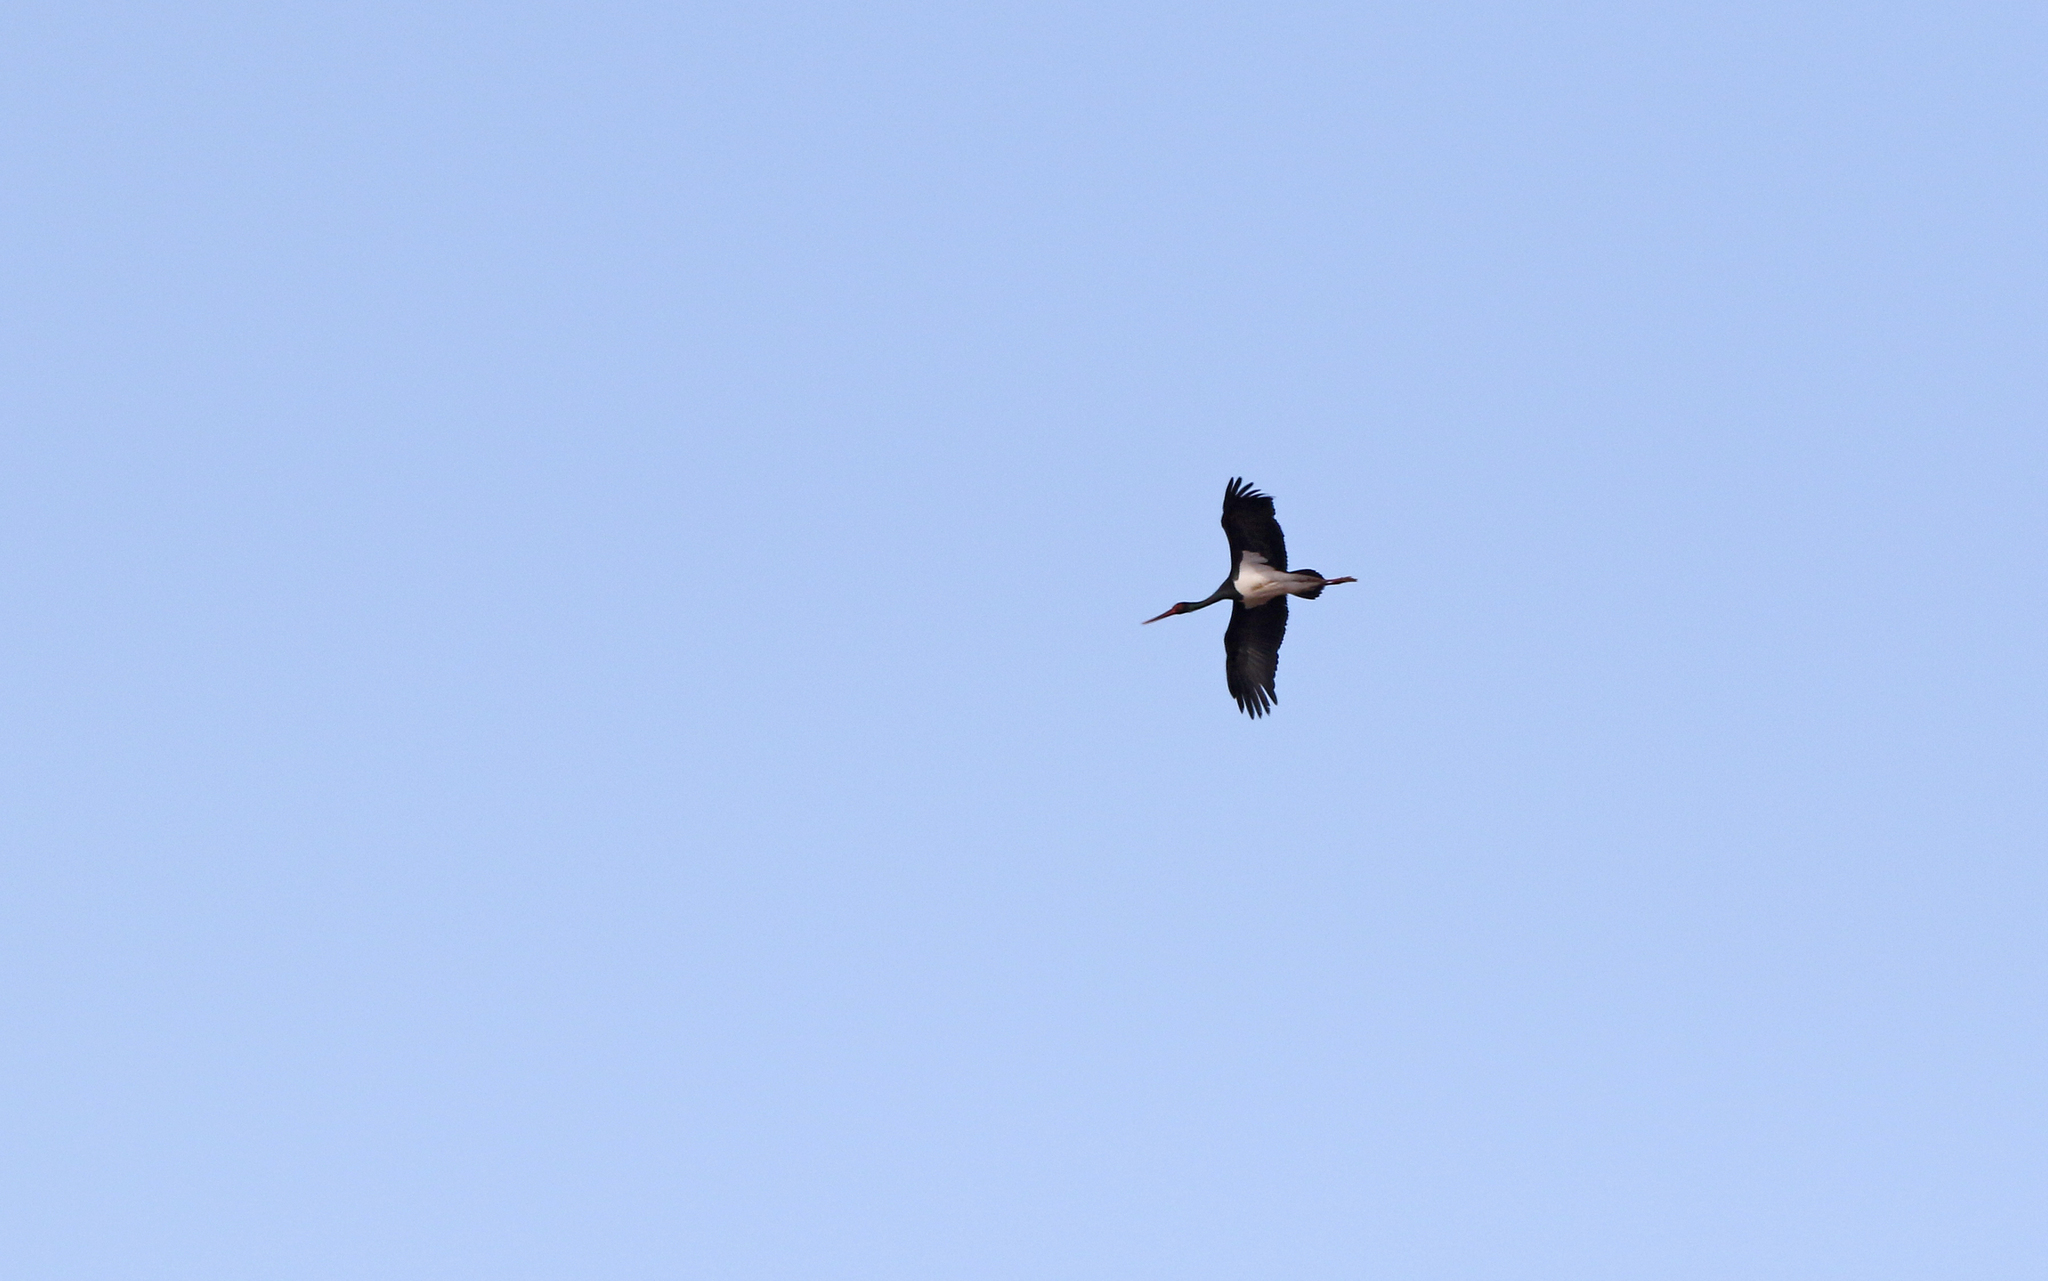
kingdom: Animalia
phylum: Chordata
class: Aves
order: Ciconiiformes
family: Ciconiidae
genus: Ciconia
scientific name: Ciconia nigra
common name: Black stork
